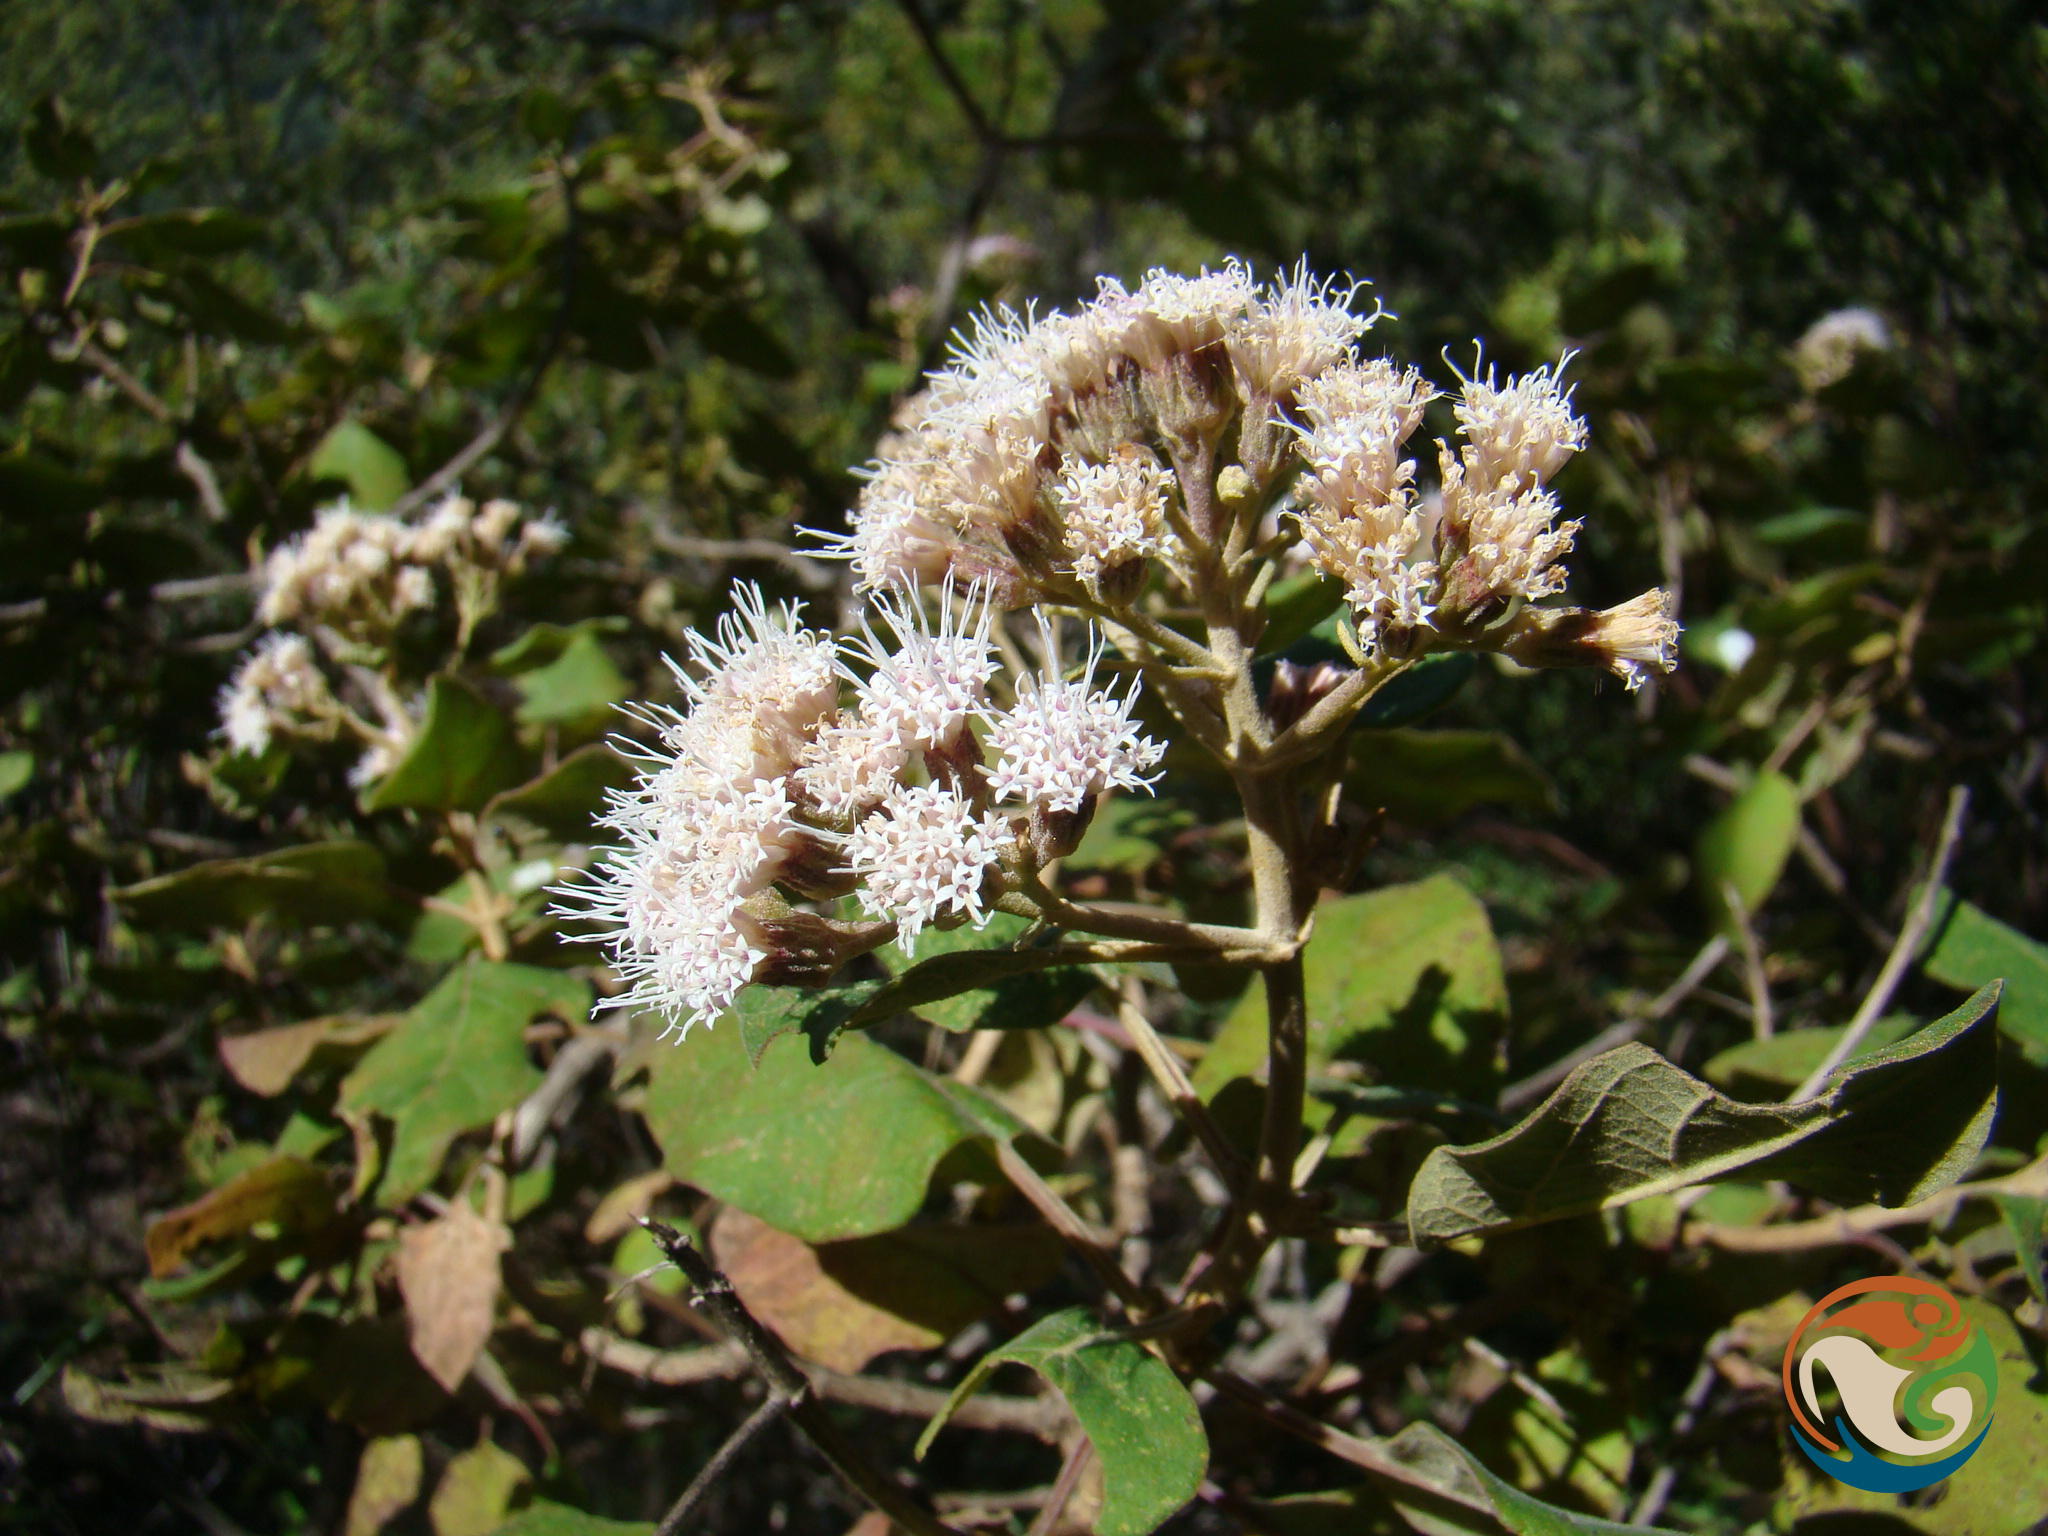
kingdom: Plantae
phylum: Tracheophyta
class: Magnoliopsida
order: Asterales
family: Asteraceae
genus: Ageratina
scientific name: Ageratina tomentella
